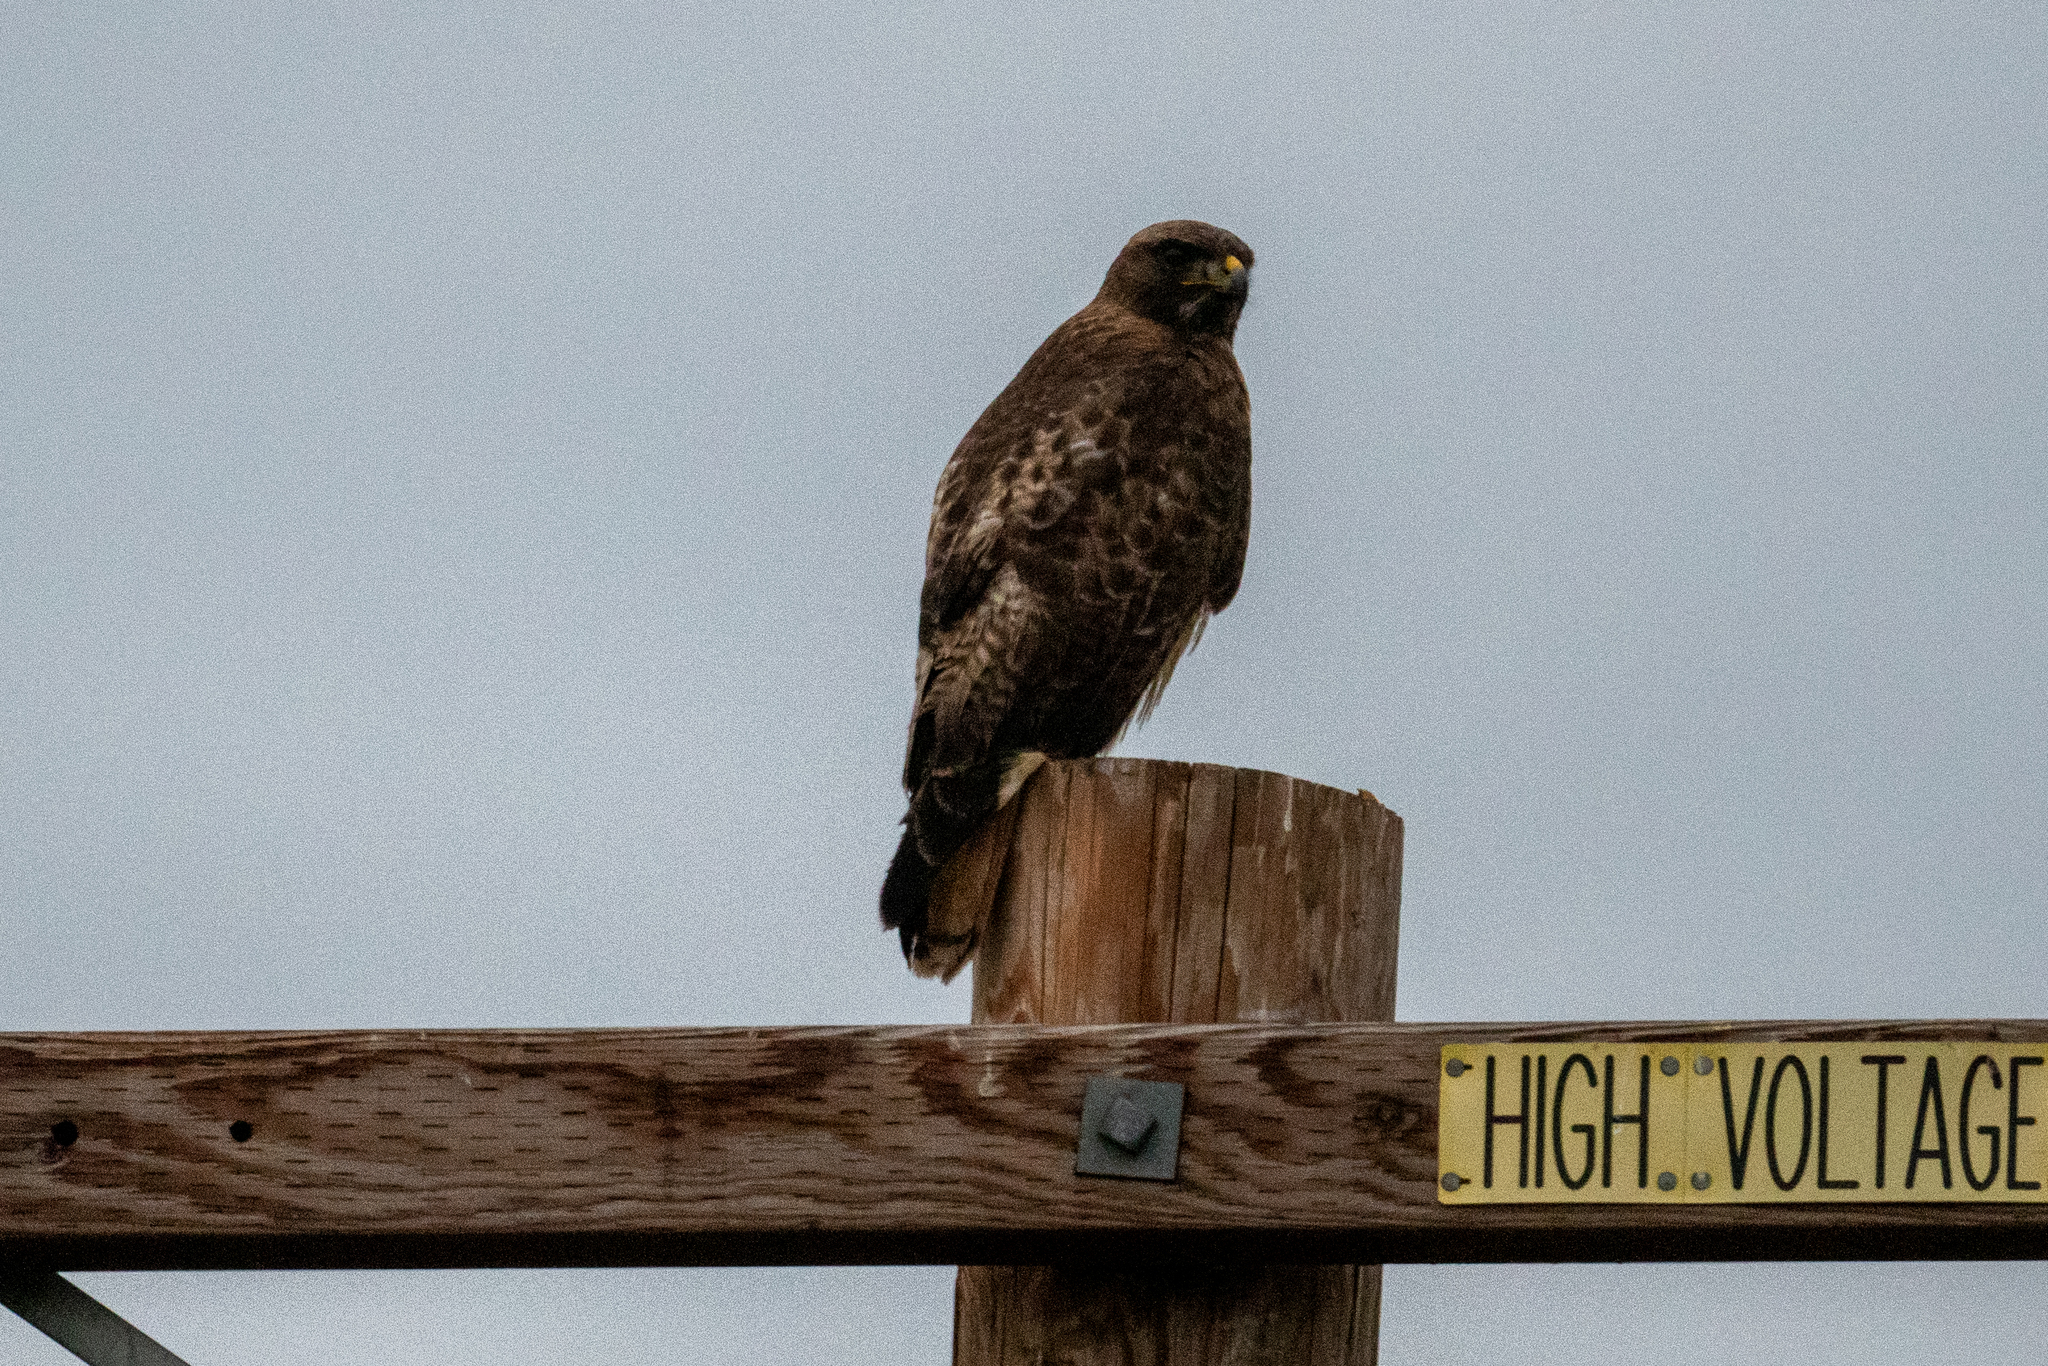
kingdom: Animalia
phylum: Chordata
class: Aves
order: Accipitriformes
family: Accipitridae
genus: Buteo
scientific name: Buteo jamaicensis
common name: Red-tailed hawk
